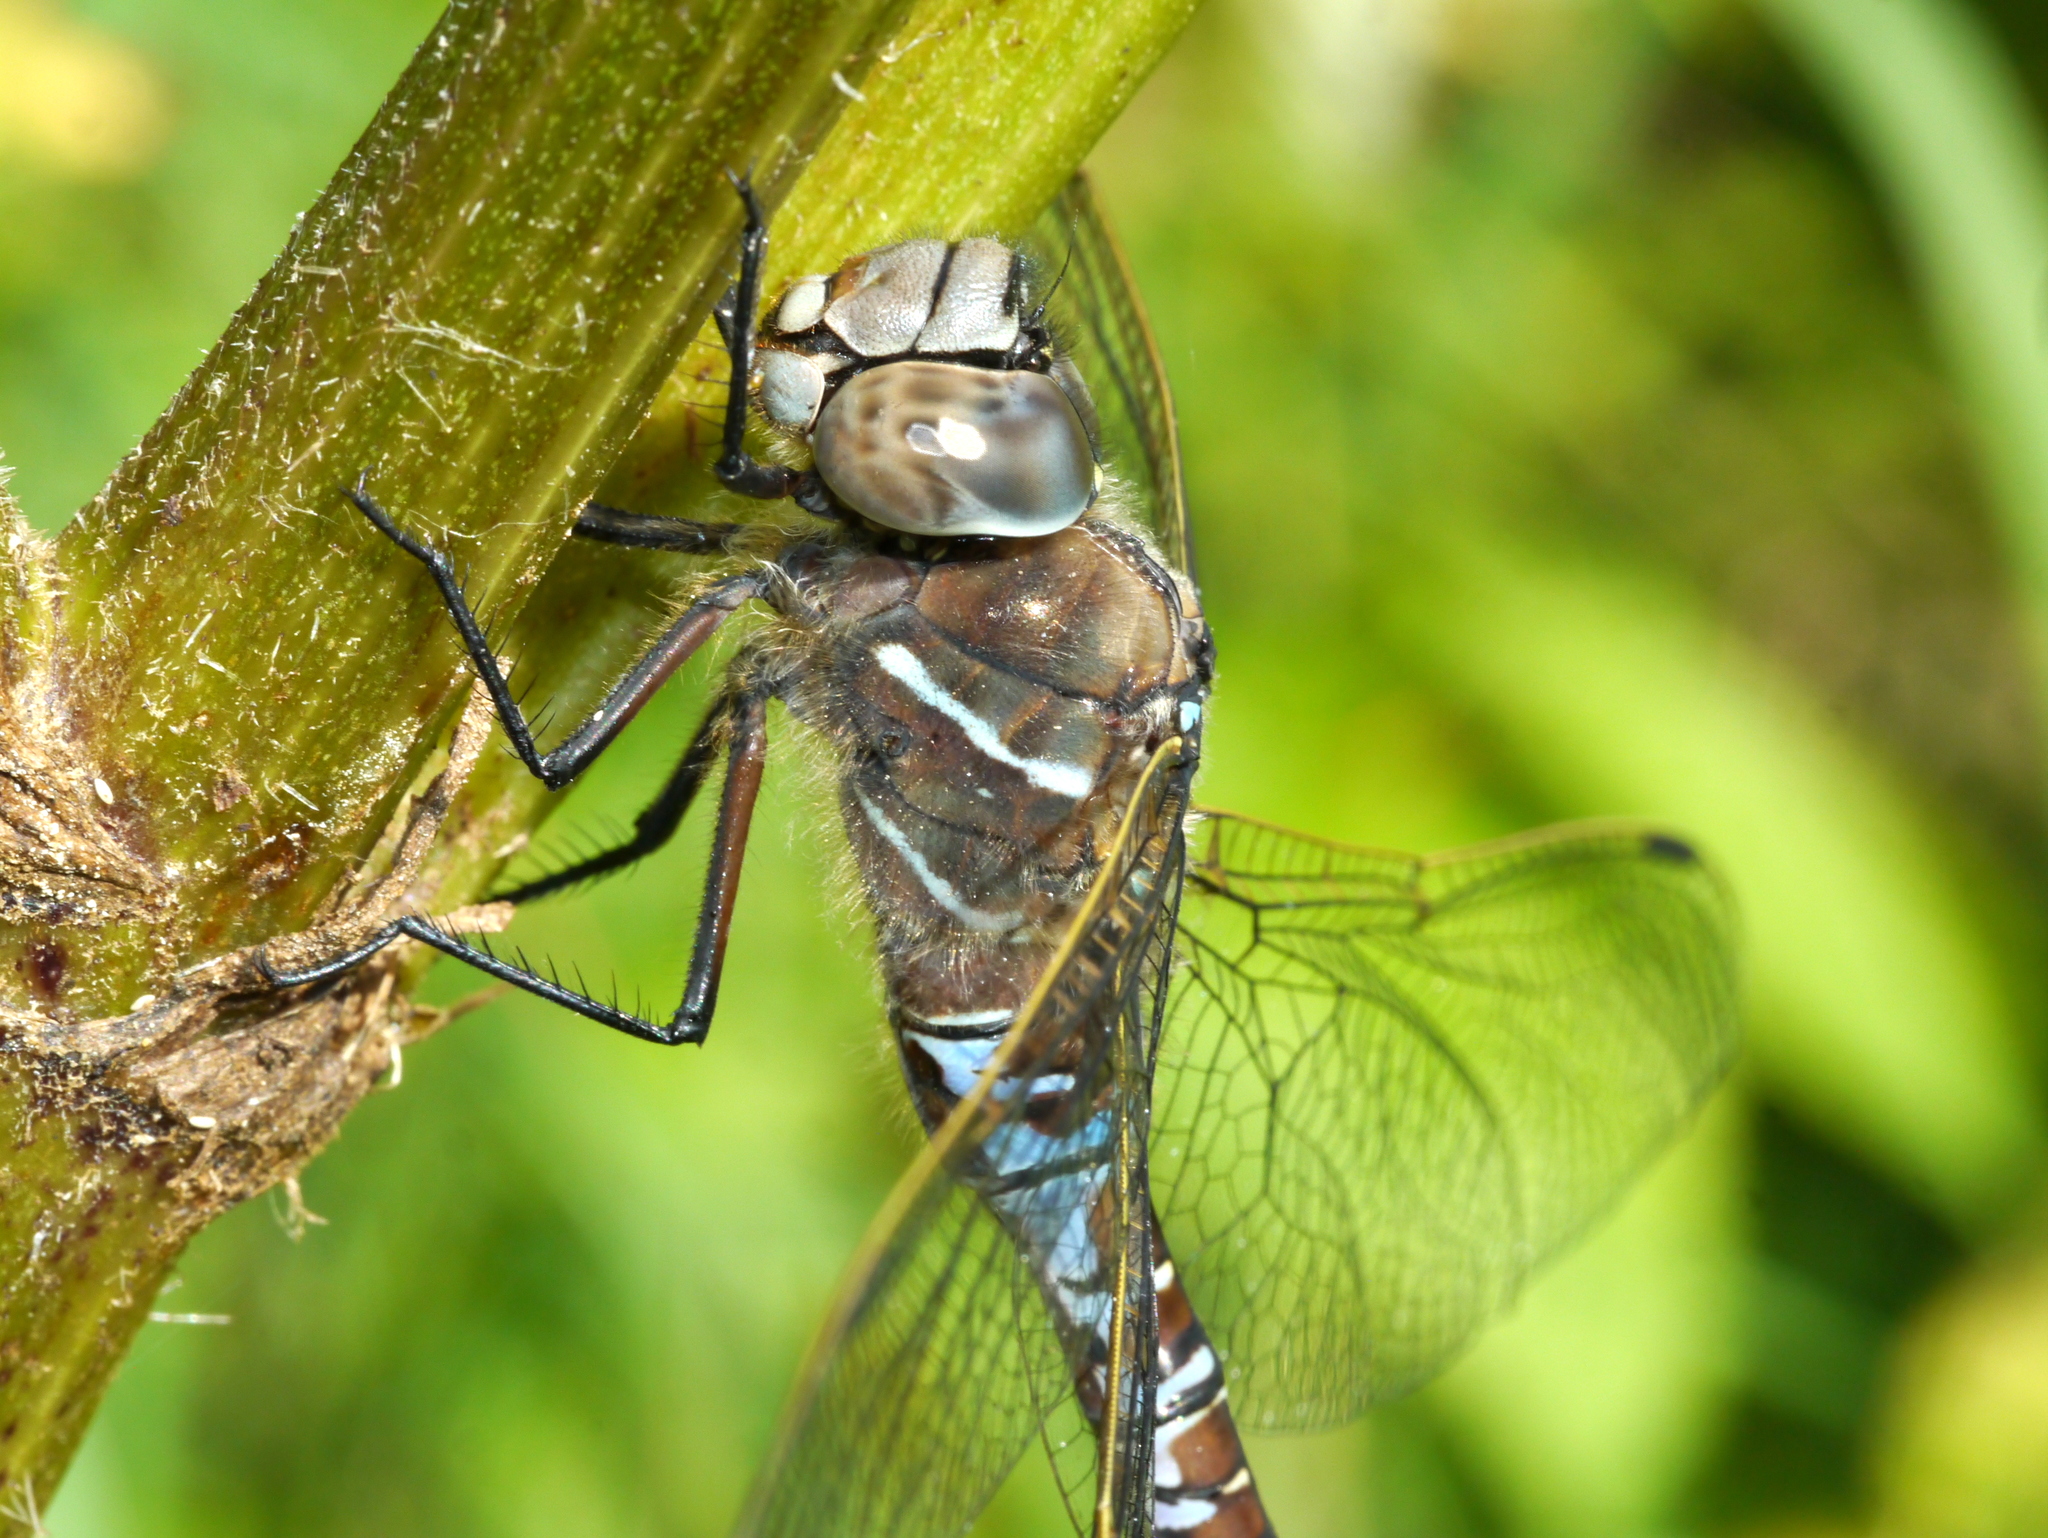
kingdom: Animalia
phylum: Arthropoda
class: Insecta
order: Odonata
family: Aeshnidae
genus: Aeshna
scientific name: Aeshna interrupta
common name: Variable darner
